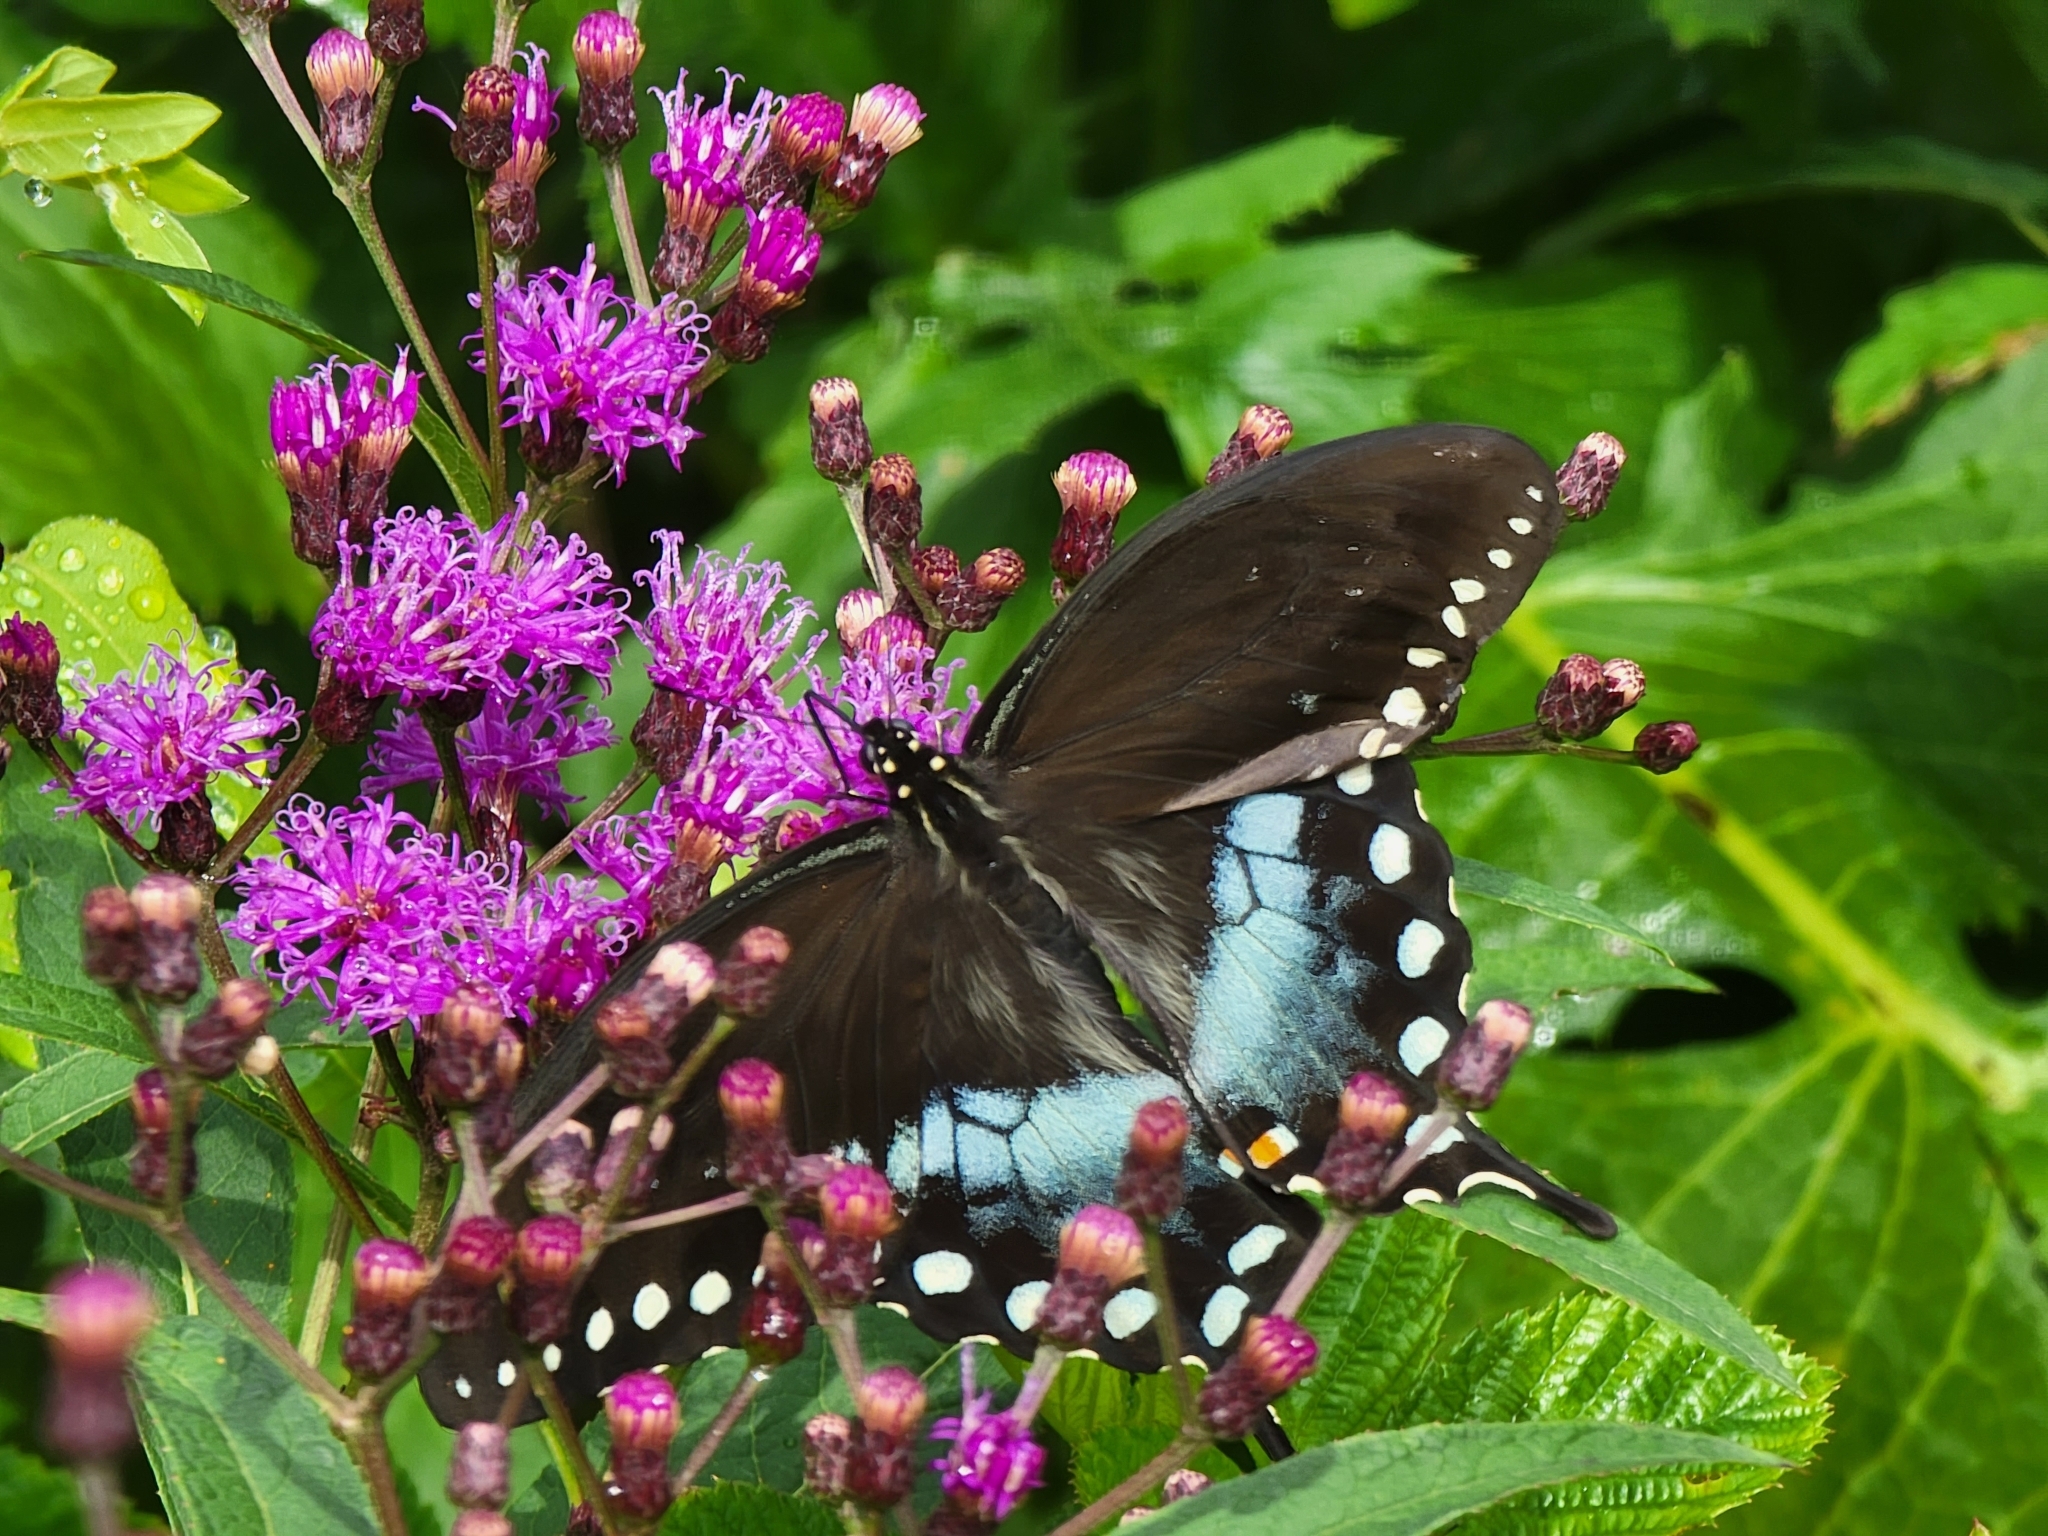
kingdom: Animalia
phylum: Arthropoda
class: Insecta
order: Lepidoptera
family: Papilionidae
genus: Papilio
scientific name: Papilio troilus
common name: Spicebush swallowtail
